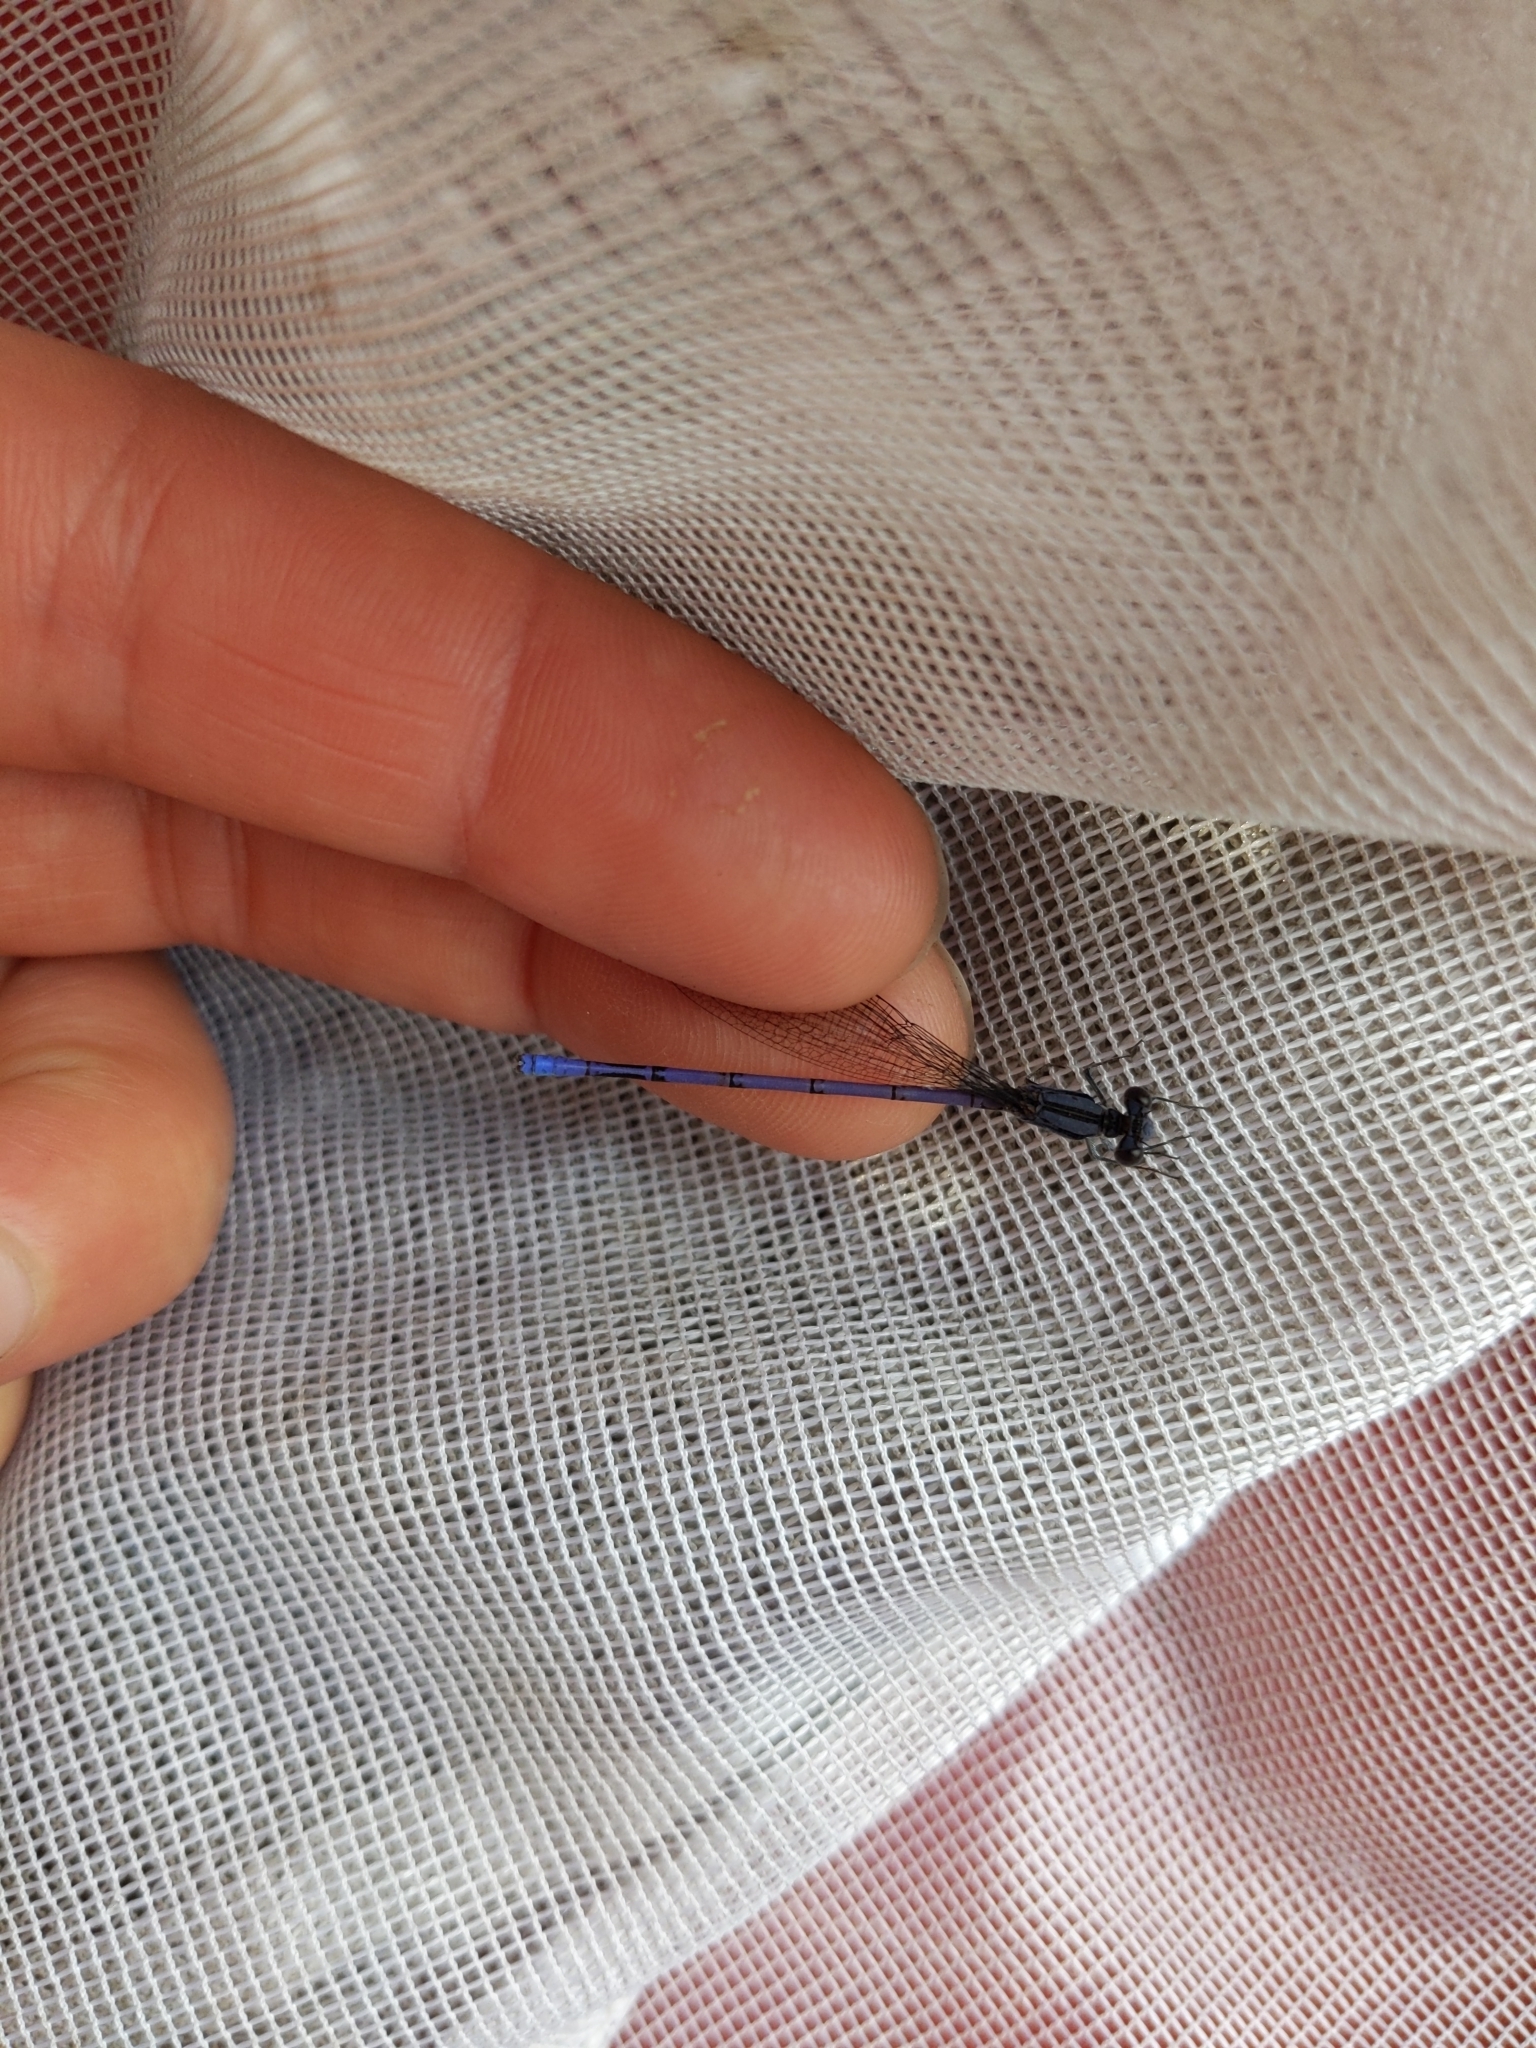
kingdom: Animalia
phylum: Arthropoda
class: Insecta
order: Odonata
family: Coenagrionidae
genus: Argia
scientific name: Argia fumipennis
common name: Variable dancer
